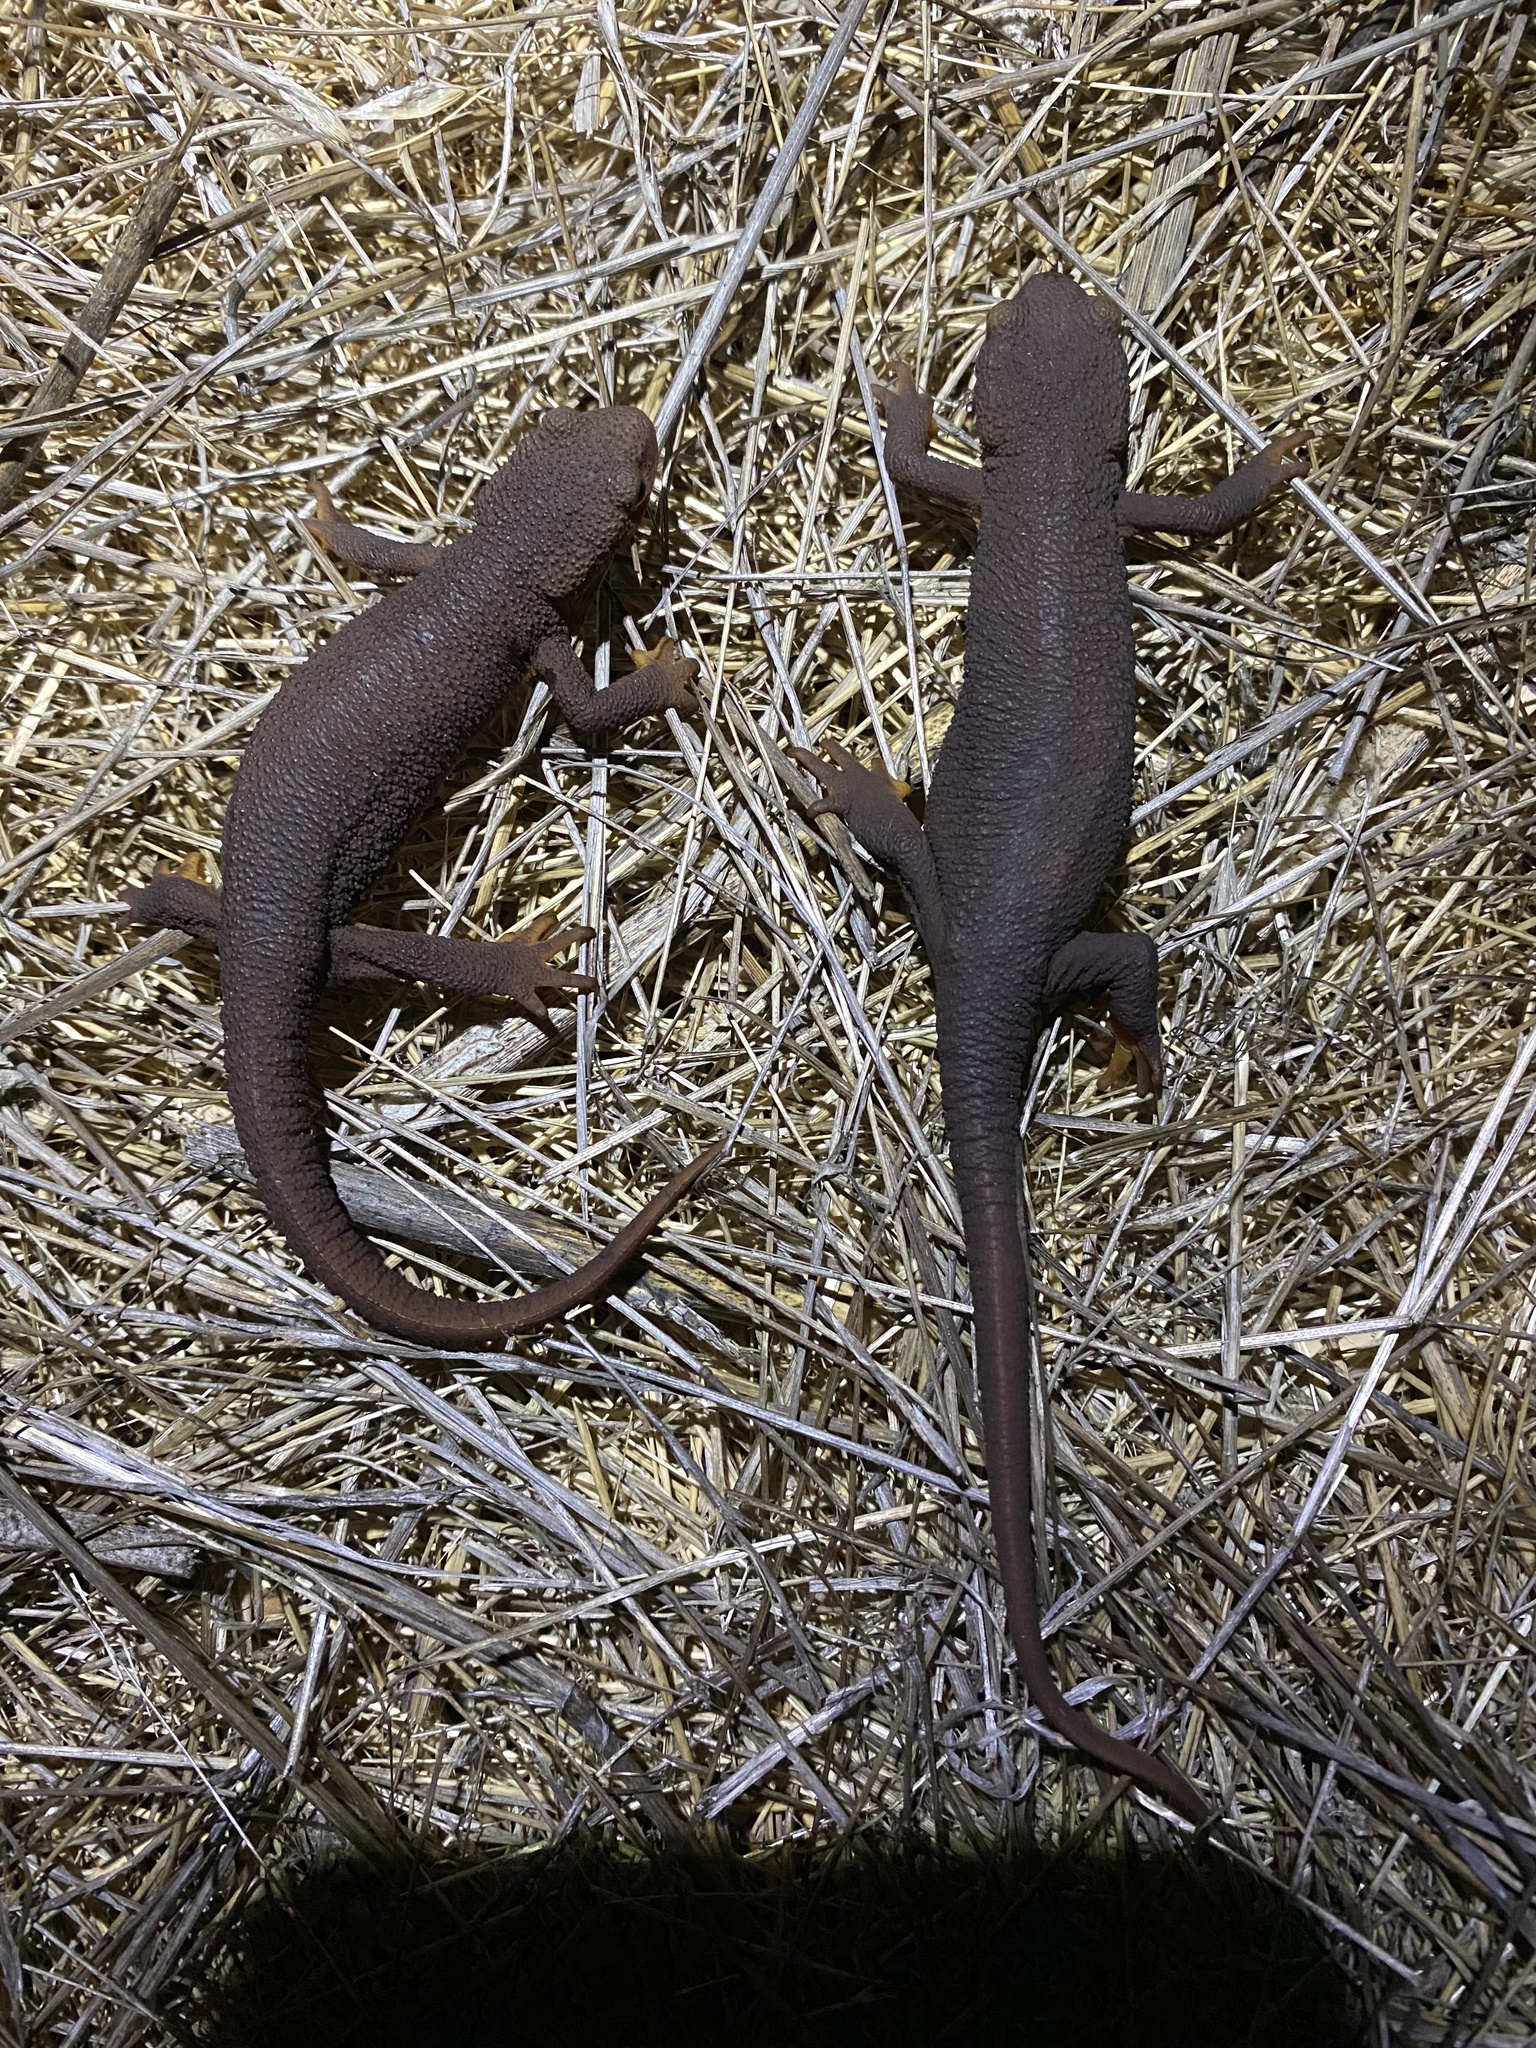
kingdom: Animalia
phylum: Chordata
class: Amphibia
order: Caudata
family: Salamandridae
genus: Taricha
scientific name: Taricha torosa
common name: California newt
